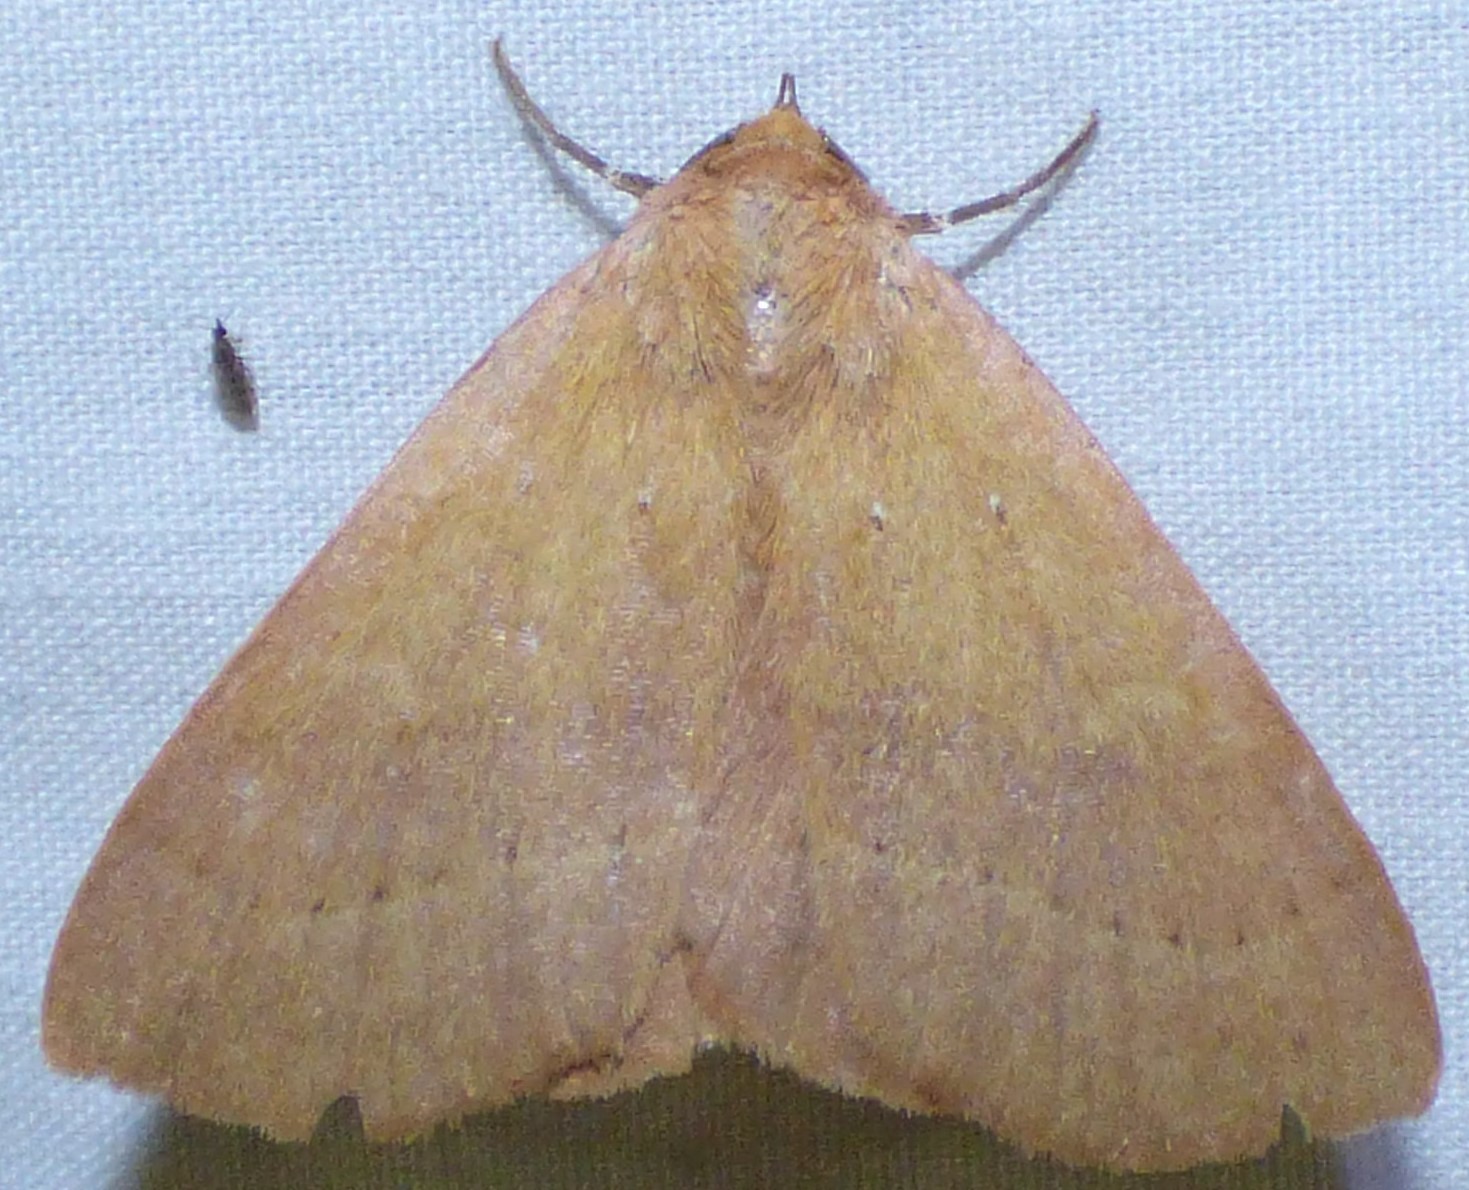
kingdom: Animalia
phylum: Arthropoda
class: Insecta
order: Lepidoptera
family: Erebidae
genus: Panopoda
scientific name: Panopoda repanda
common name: Orange panopoda
